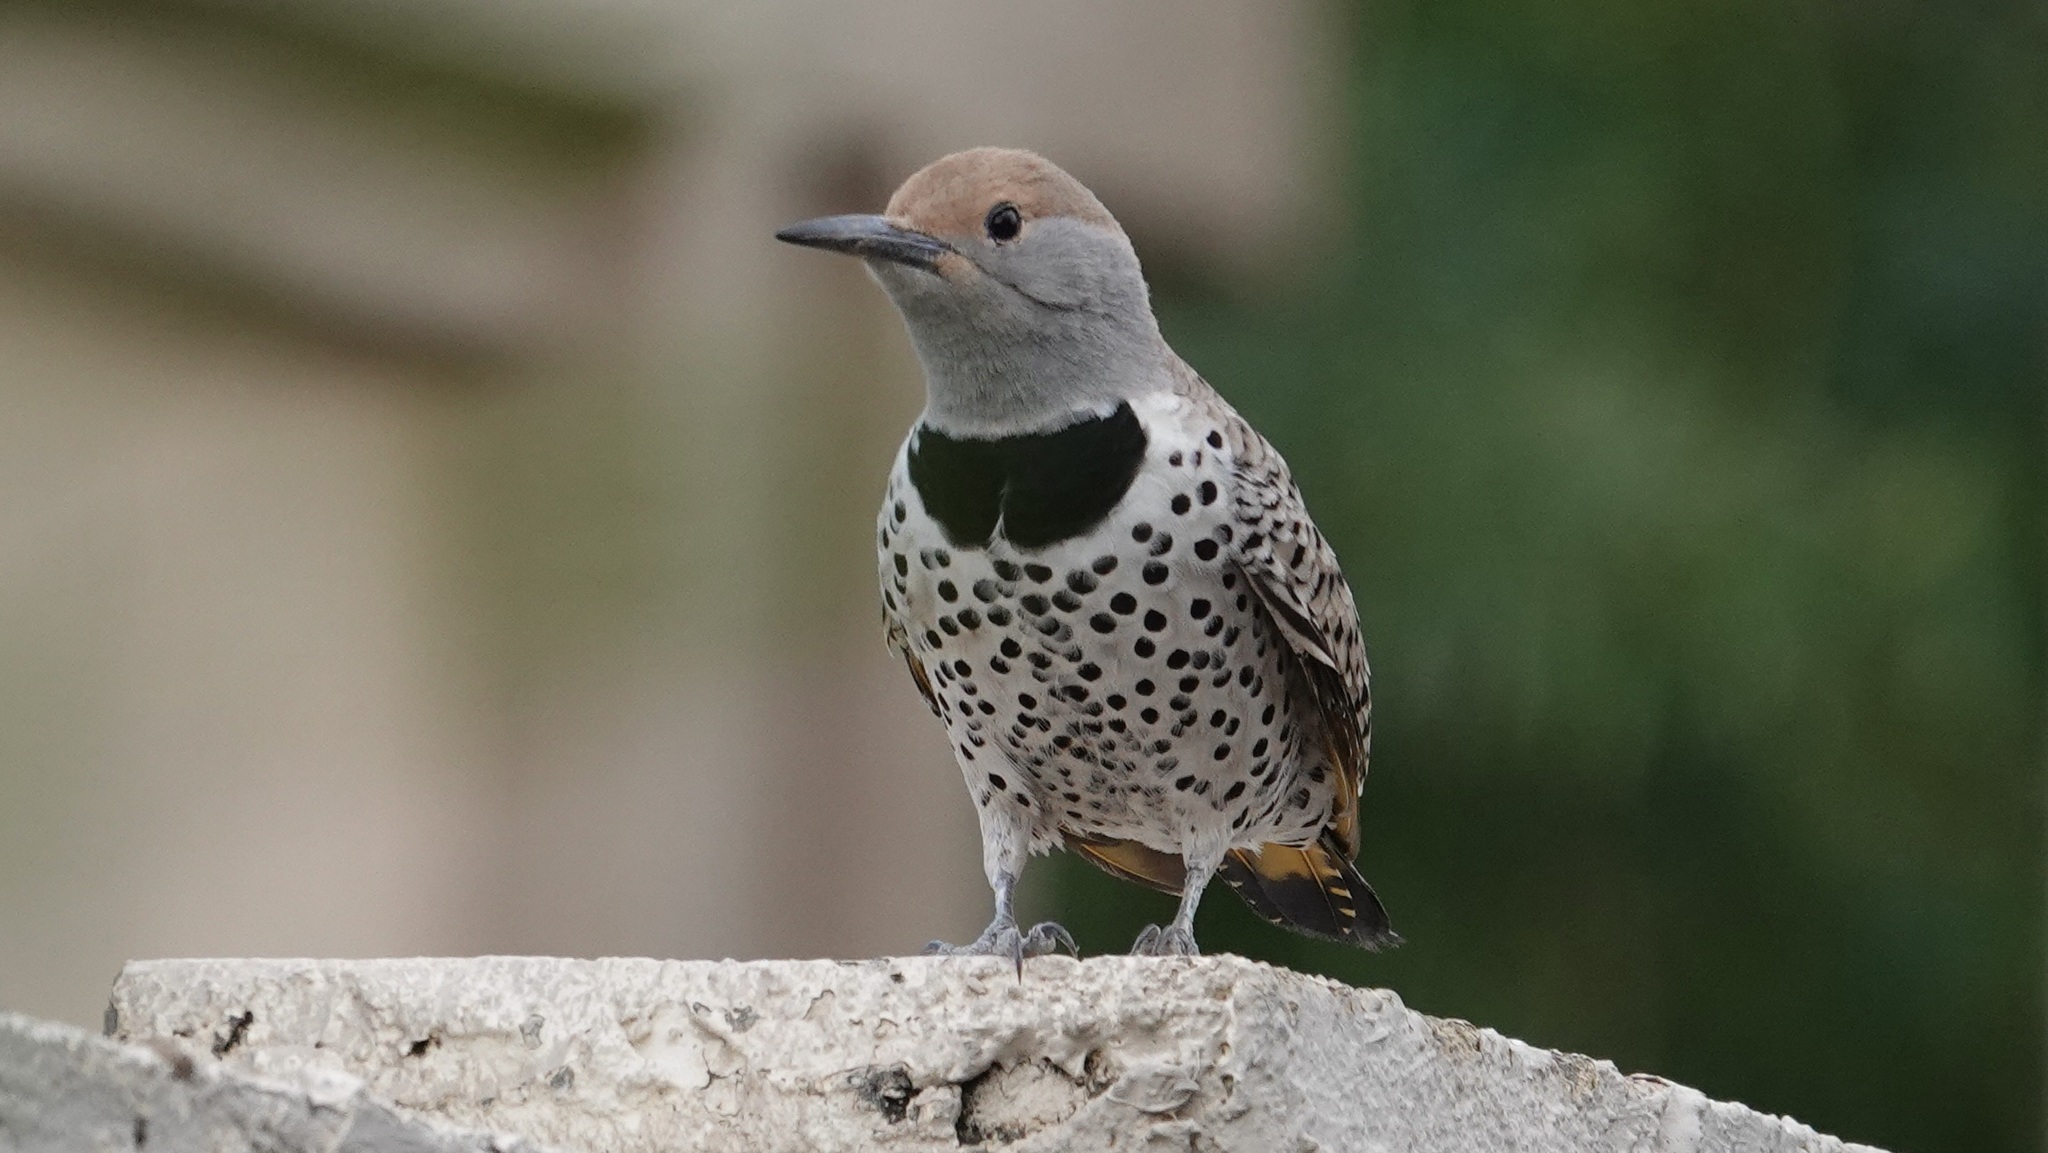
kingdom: Animalia
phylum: Chordata
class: Aves
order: Piciformes
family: Picidae
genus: Colaptes
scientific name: Colaptes chrysoides
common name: Gilded flicker
